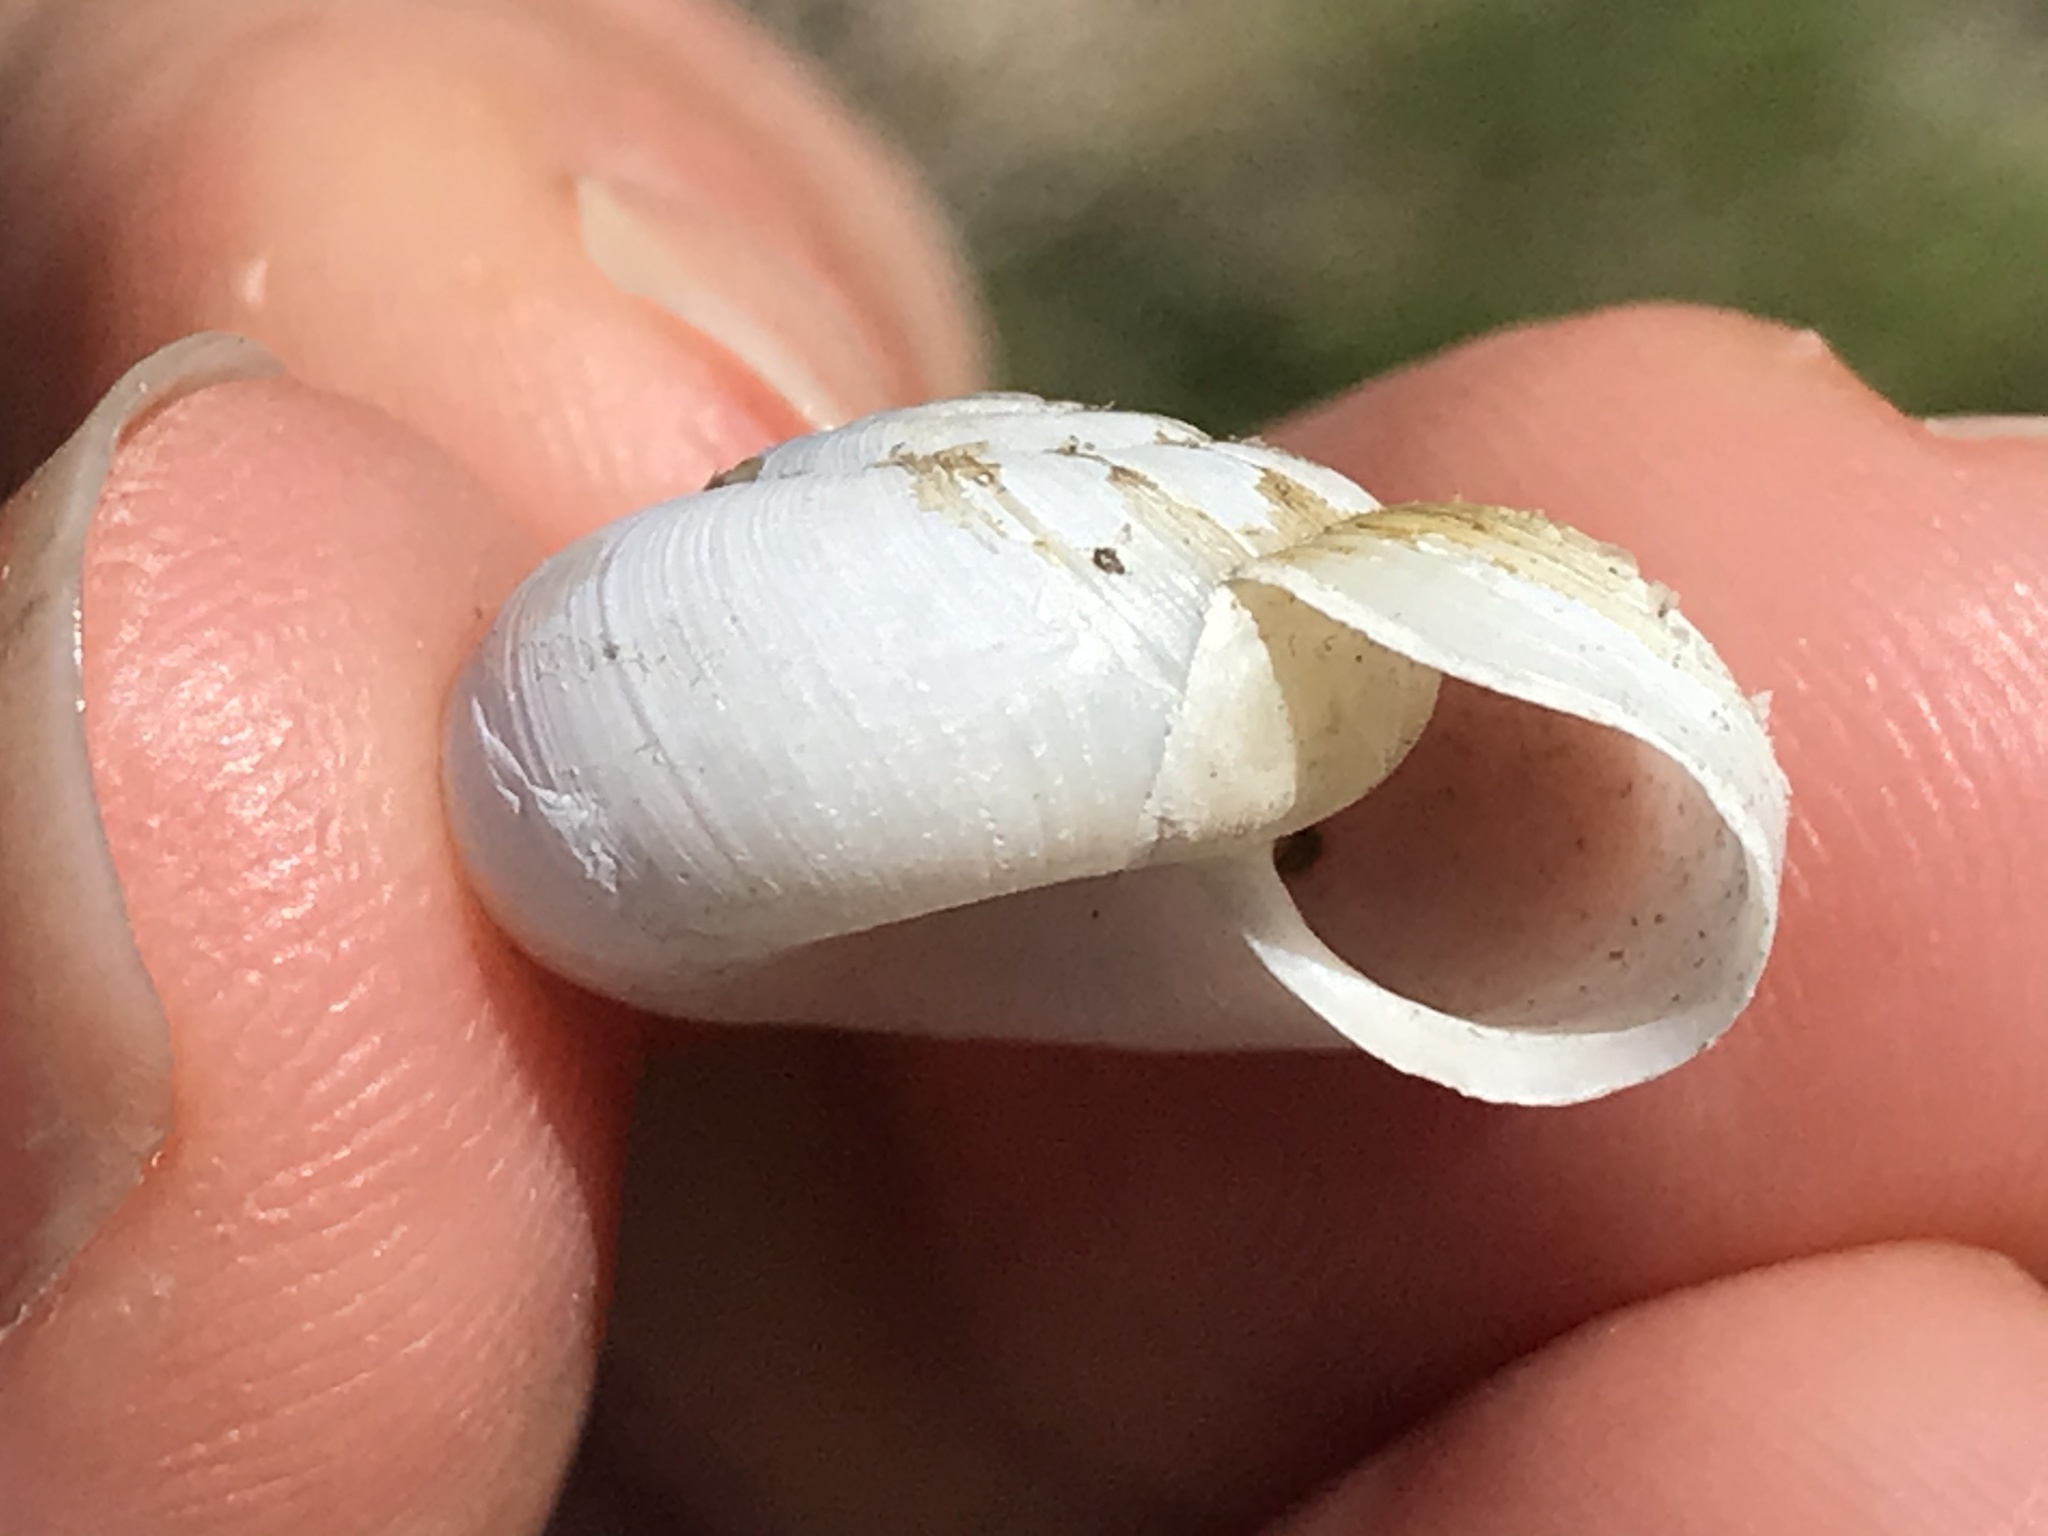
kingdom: Animalia
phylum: Mollusca
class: Gastropoda
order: Stylommatophora
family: Haplotrematidae
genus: Haplotrema
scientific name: Haplotrema minimum
